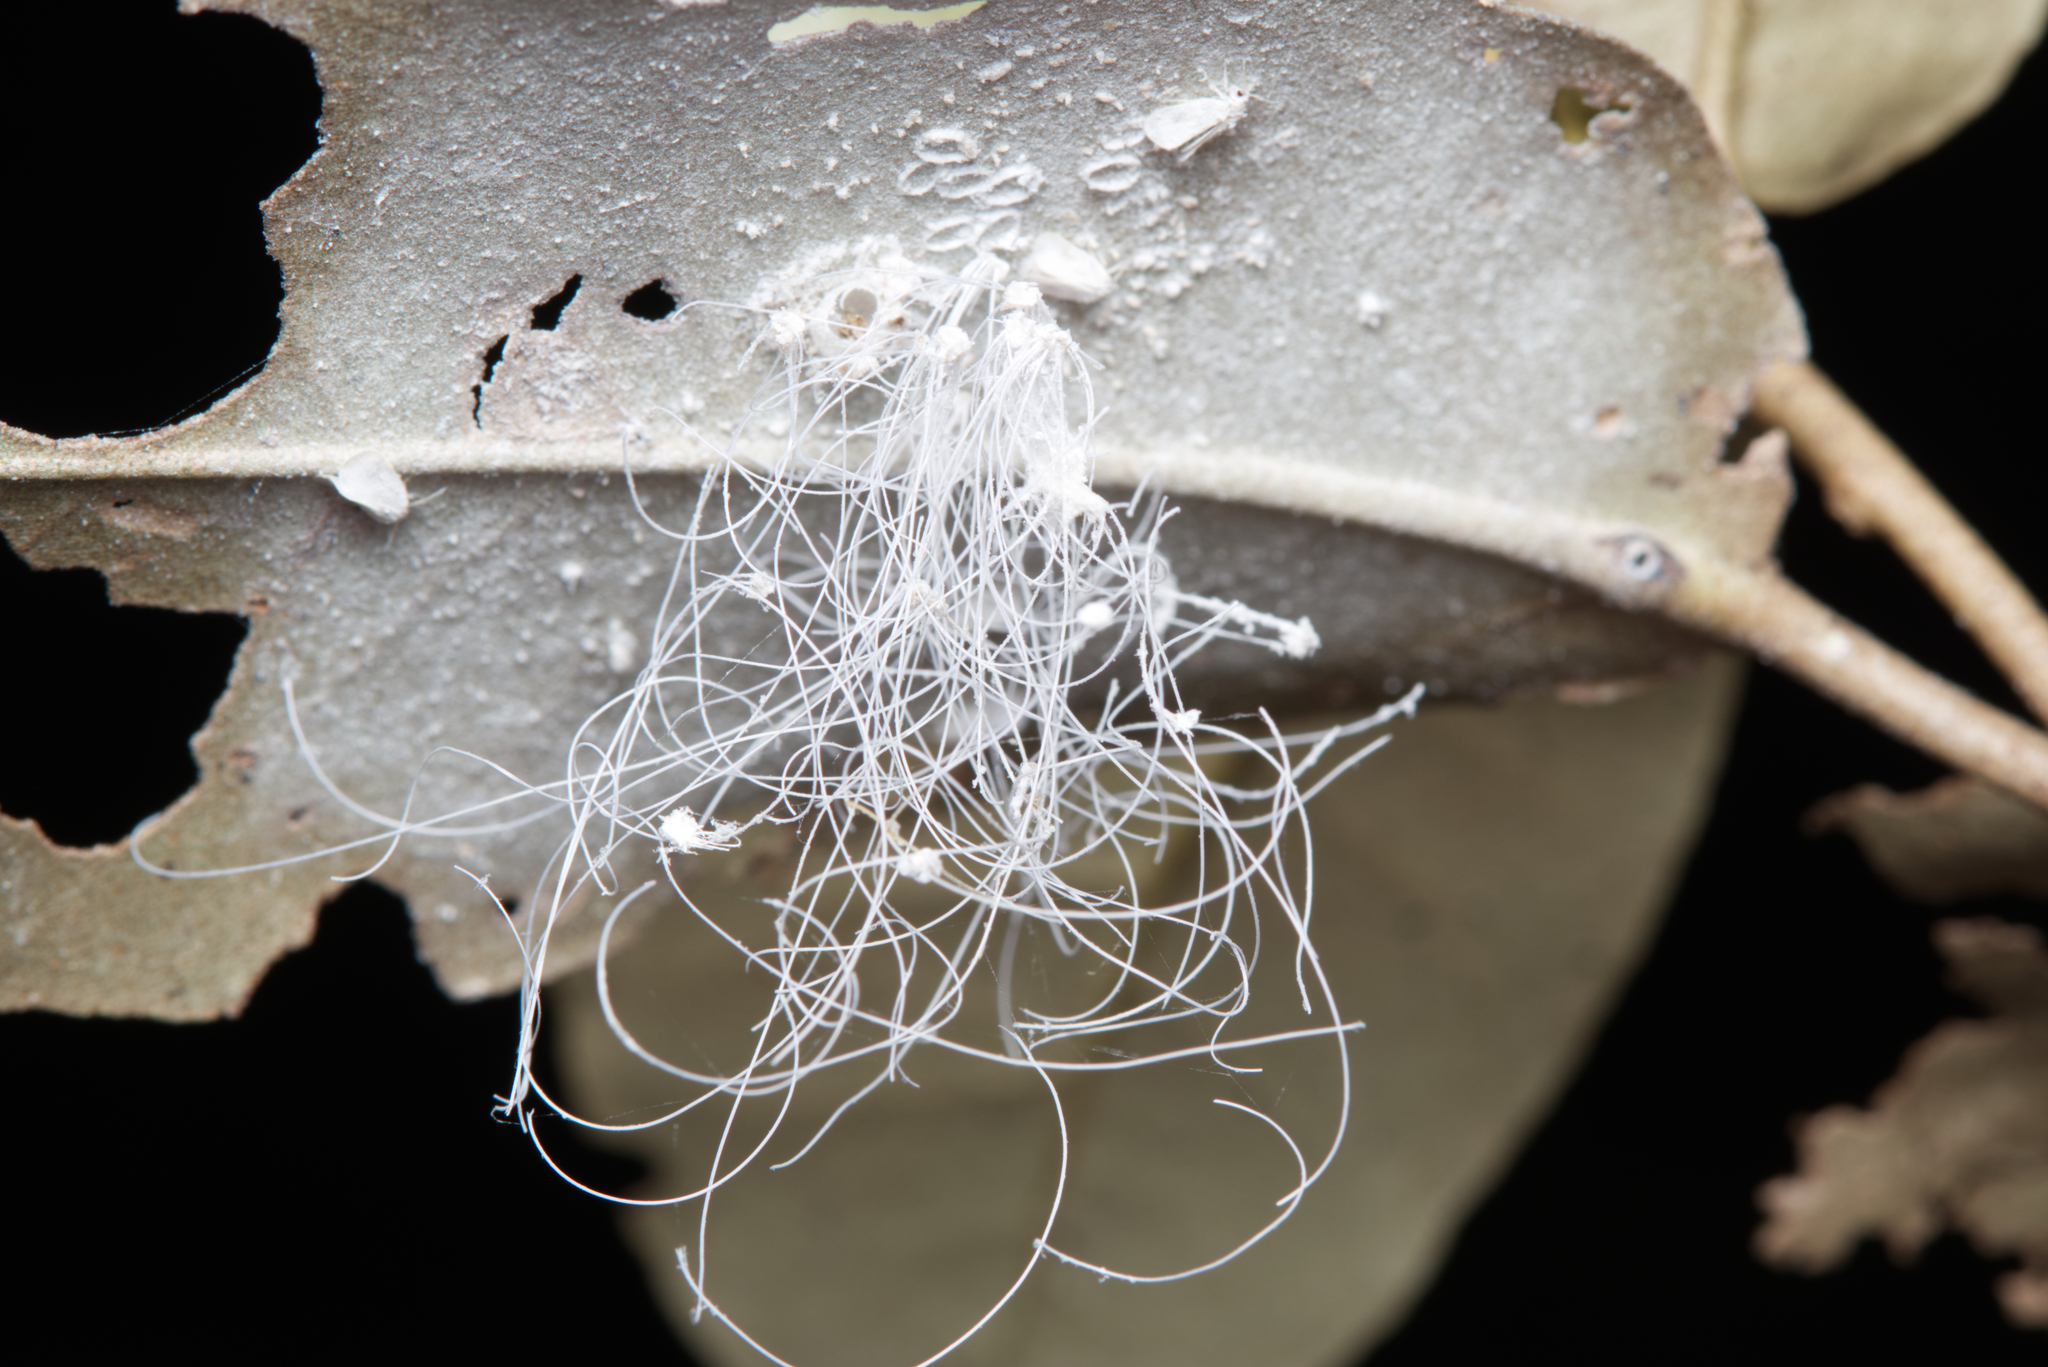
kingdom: Animalia
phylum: Arthropoda
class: Insecta
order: Hemiptera
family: Aleyrodidae
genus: Aleuroctarthrus
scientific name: Aleuroctarthrus
